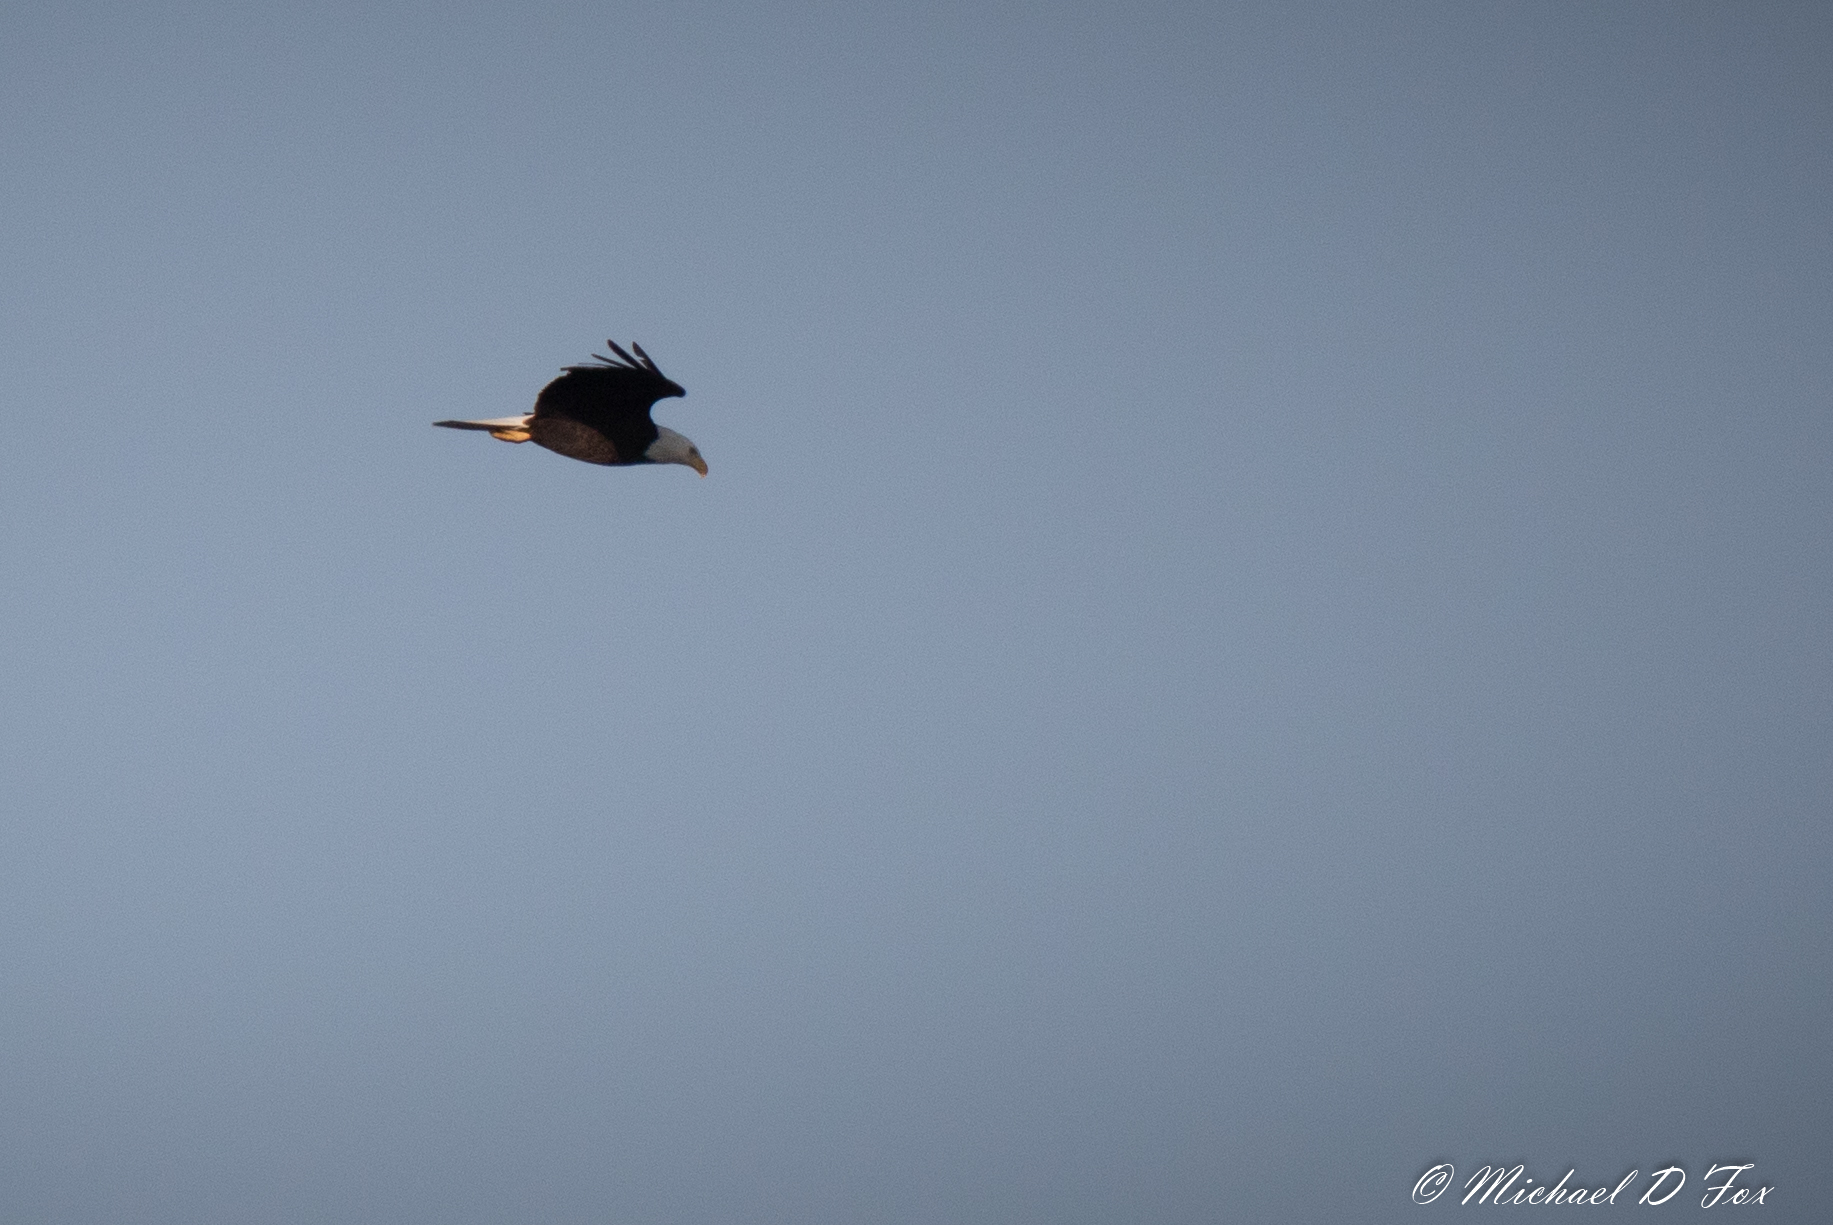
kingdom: Animalia
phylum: Chordata
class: Aves
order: Accipitriformes
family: Accipitridae
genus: Haliaeetus
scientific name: Haliaeetus leucocephalus
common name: Bald eagle
